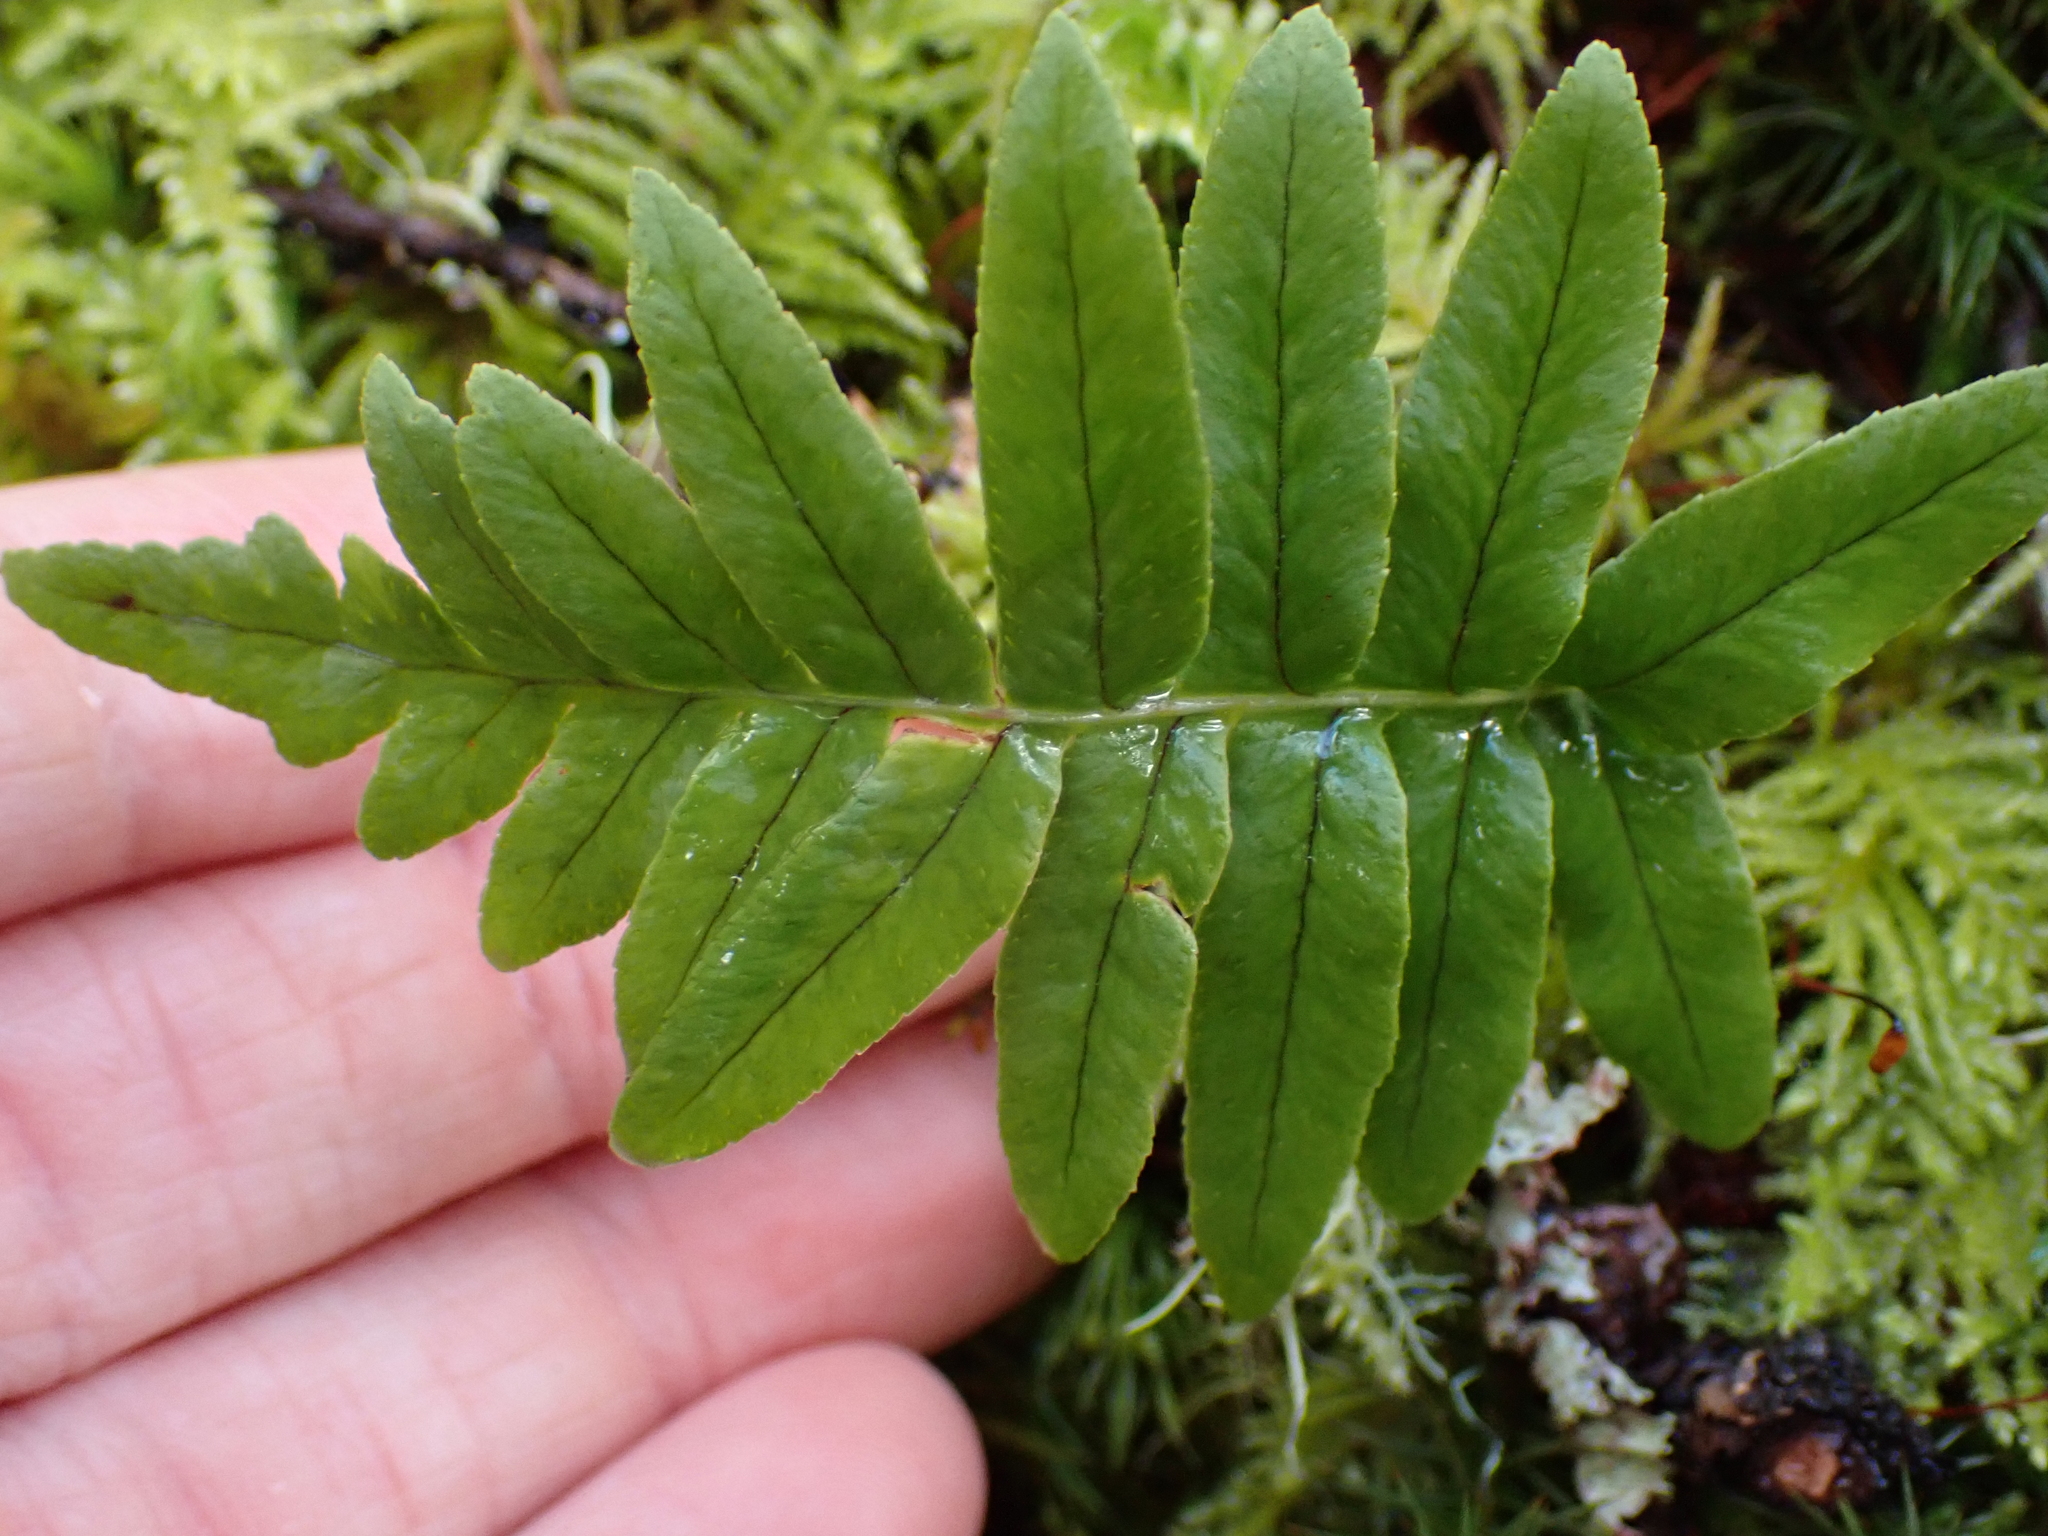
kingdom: Plantae
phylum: Tracheophyta
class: Polypodiopsida
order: Polypodiales
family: Polypodiaceae
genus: Polypodium
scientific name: Polypodium glycyrrhiza
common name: Licorice fern
